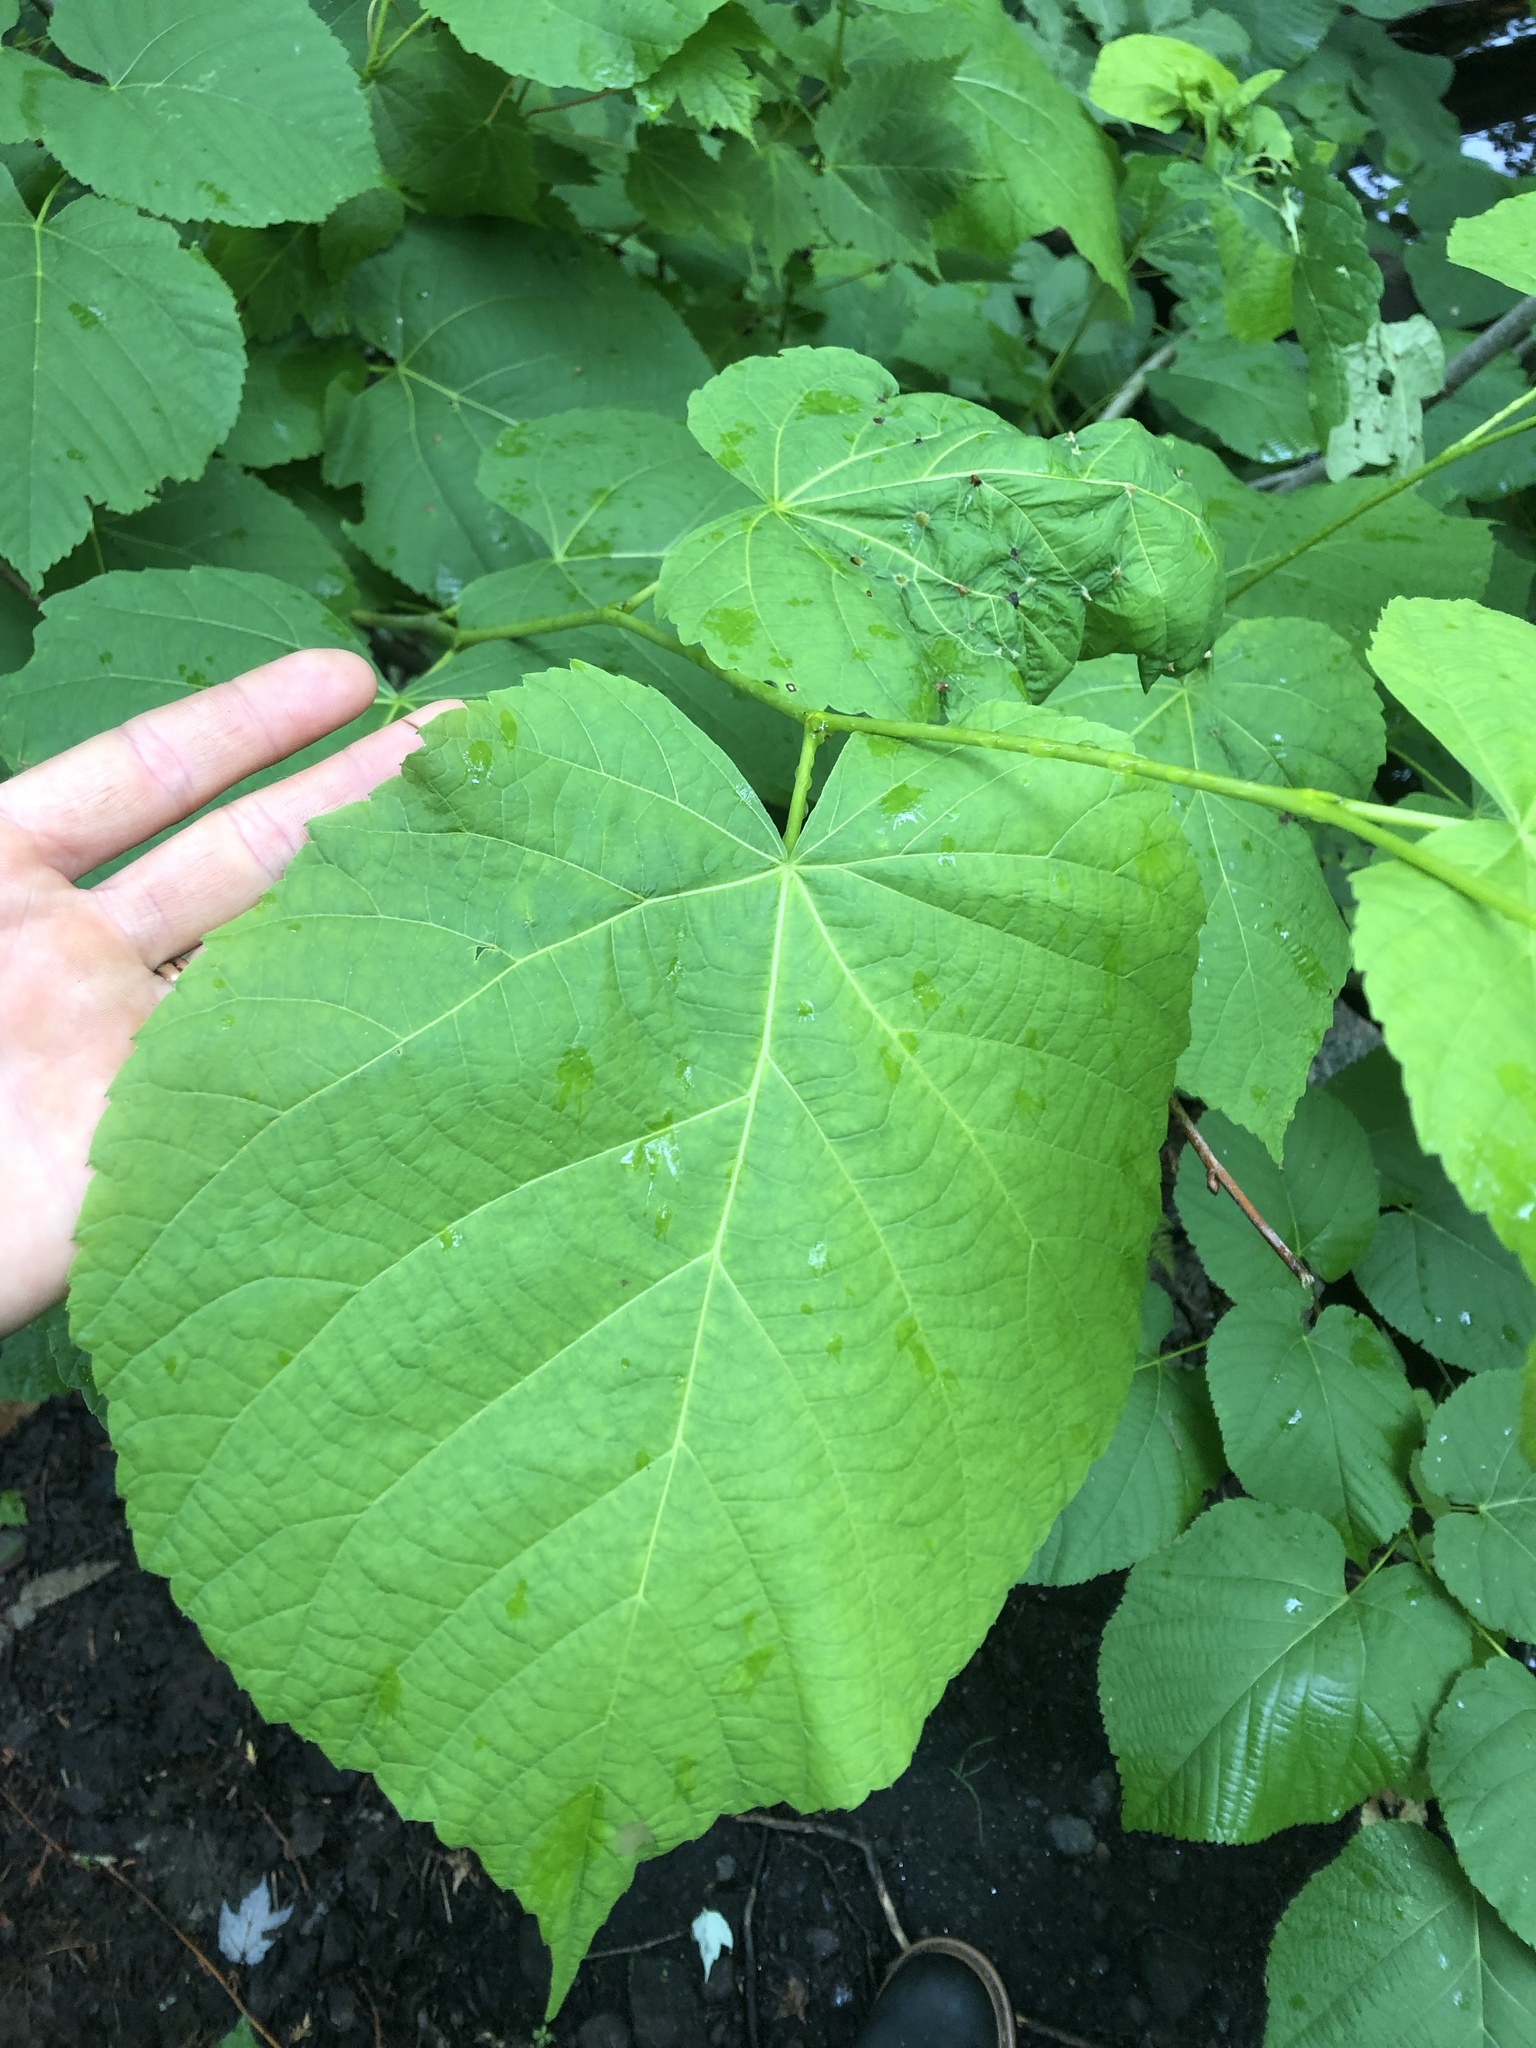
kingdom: Plantae
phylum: Tracheophyta
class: Magnoliopsida
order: Malvales
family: Malvaceae
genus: Tilia
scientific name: Tilia americana
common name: Basswood
